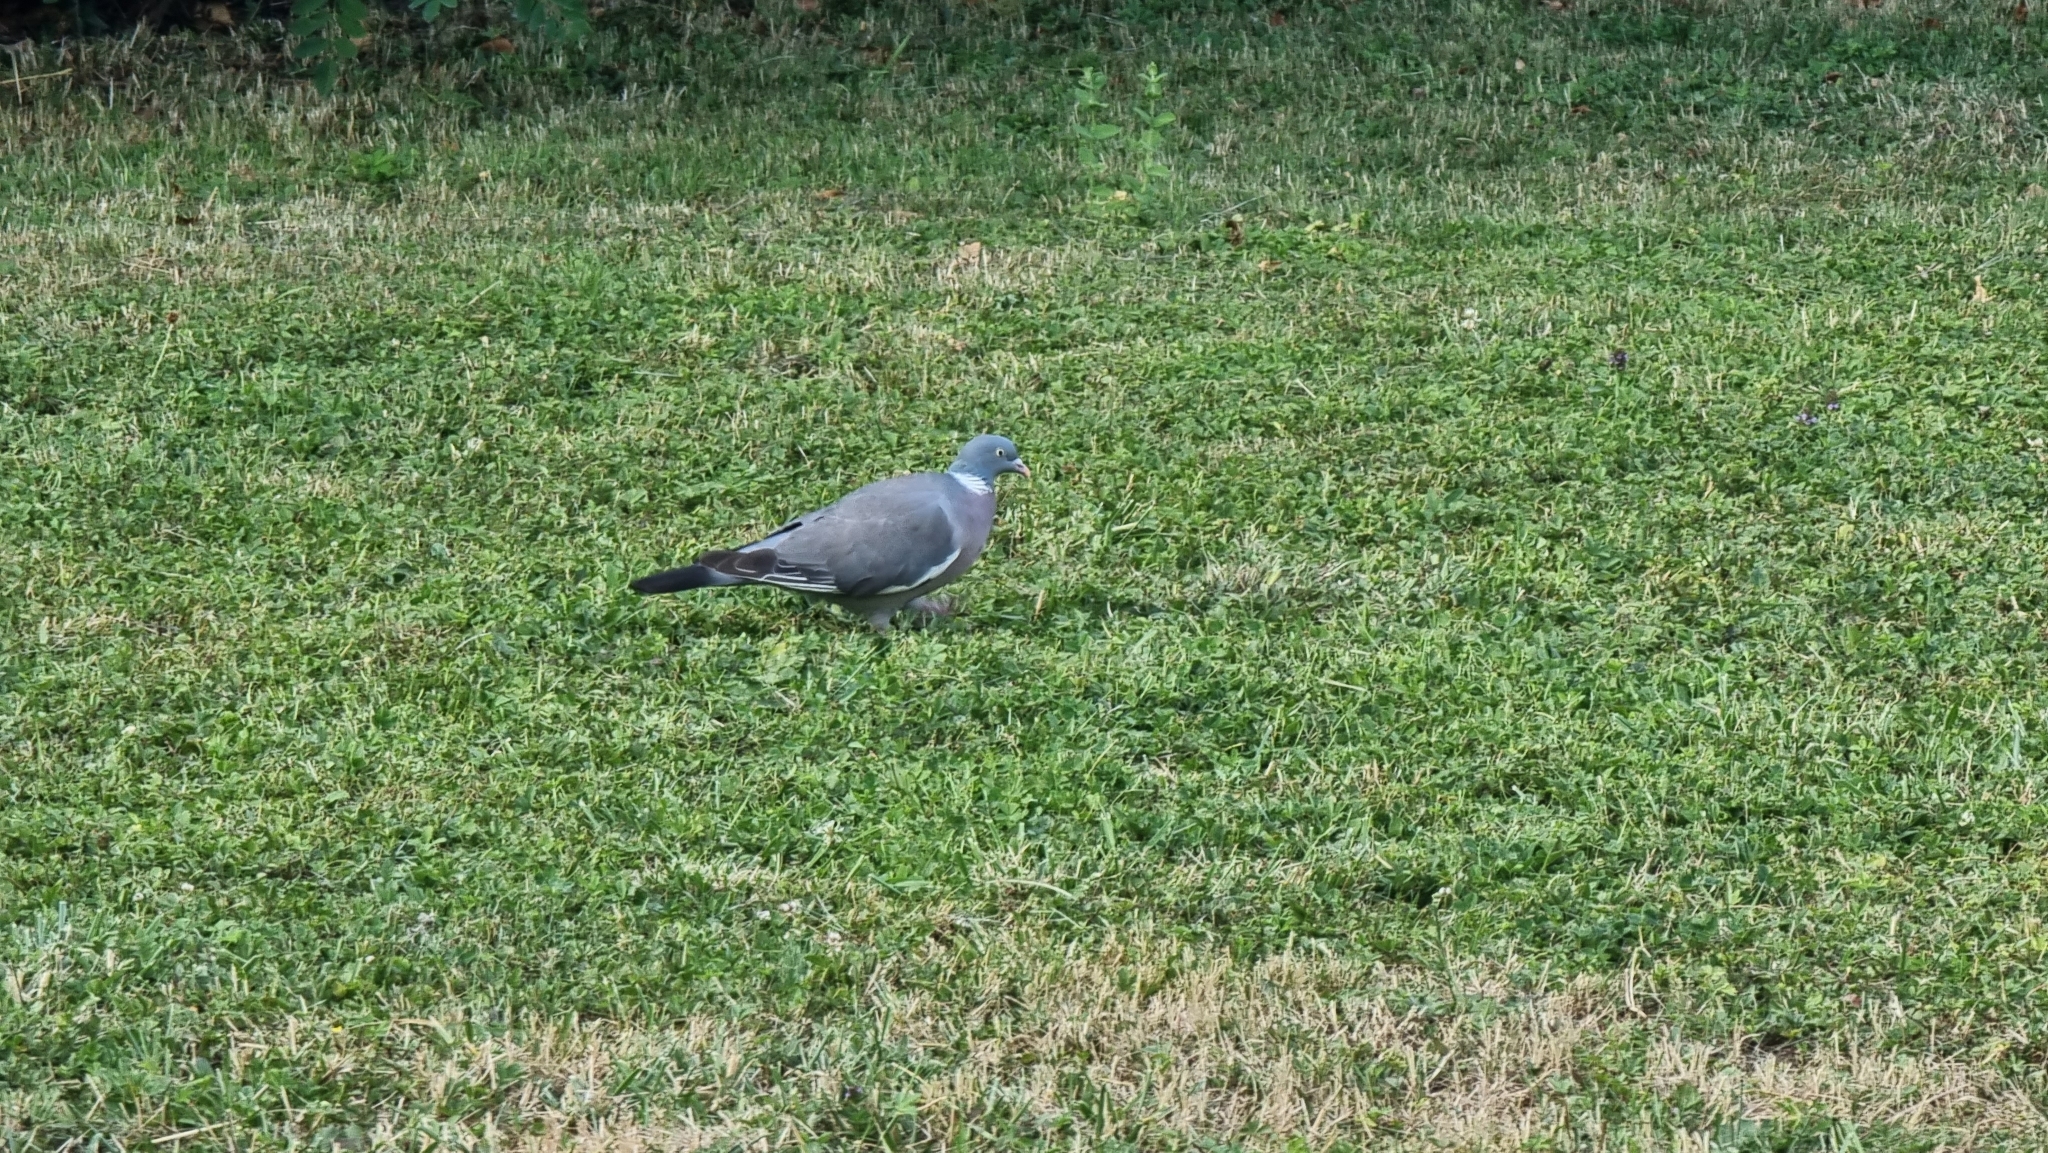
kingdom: Animalia
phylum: Chordata
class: Aves
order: Columbiformes
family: Columbidae
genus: Columba
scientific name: Columba palumbus
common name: Common wood pigeon
